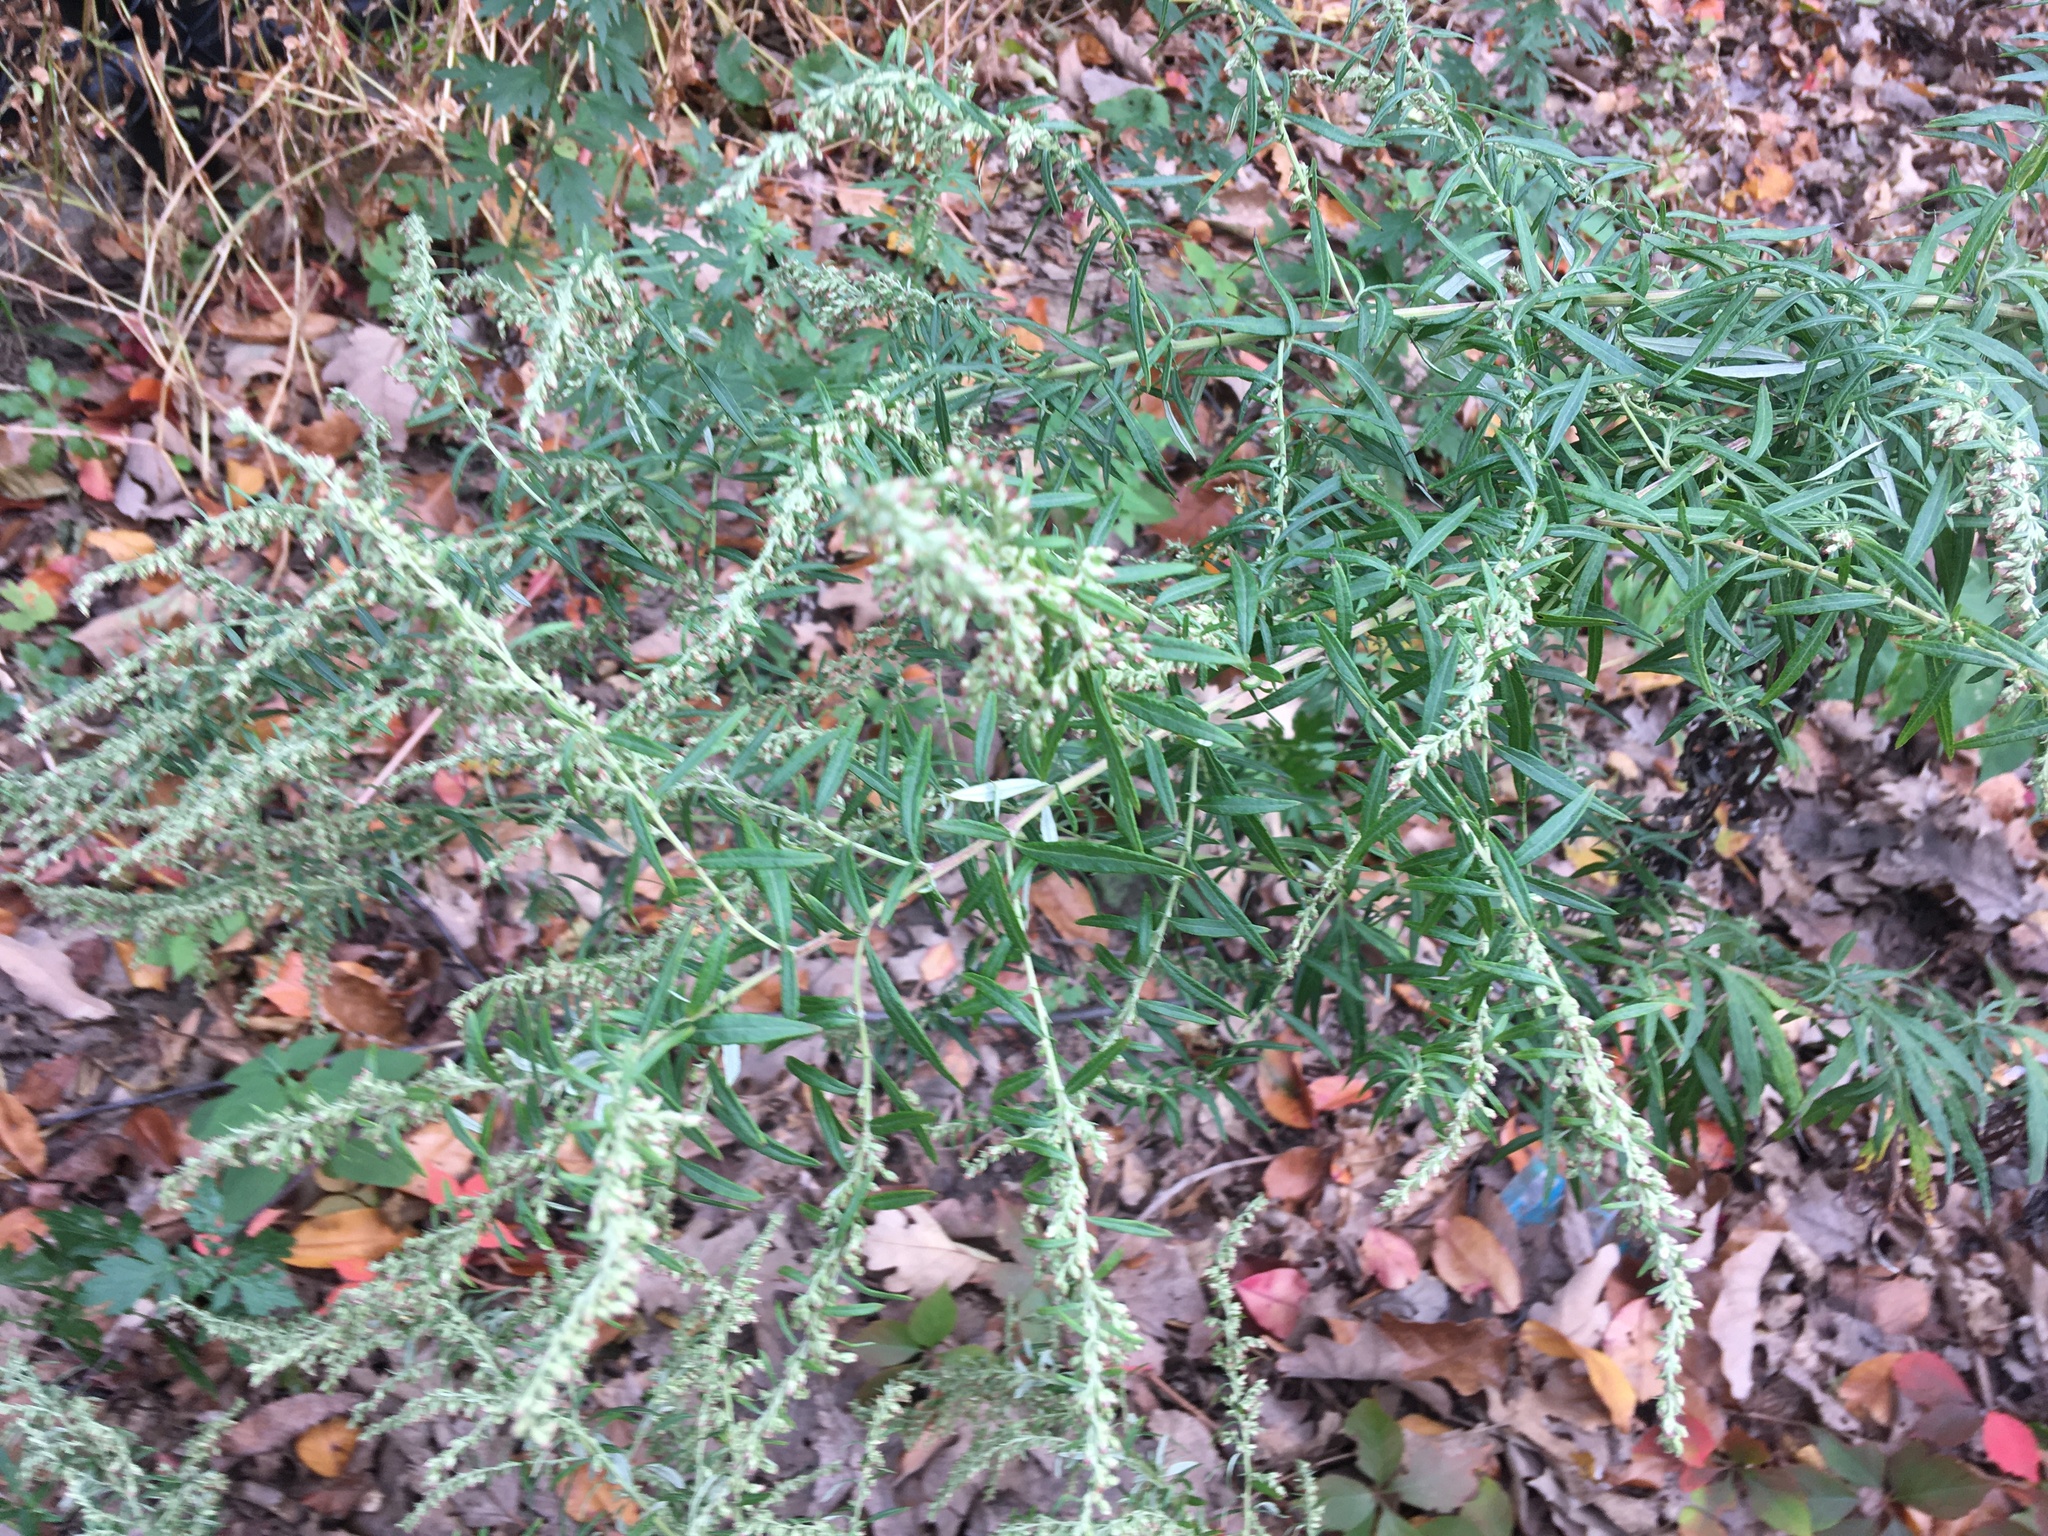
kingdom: Plantae
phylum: Tracheophyta
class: Magnoliopsida
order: Asterales
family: Asteraceae
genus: Artemisia
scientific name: Artemisia vulgaris
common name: Mugwort
